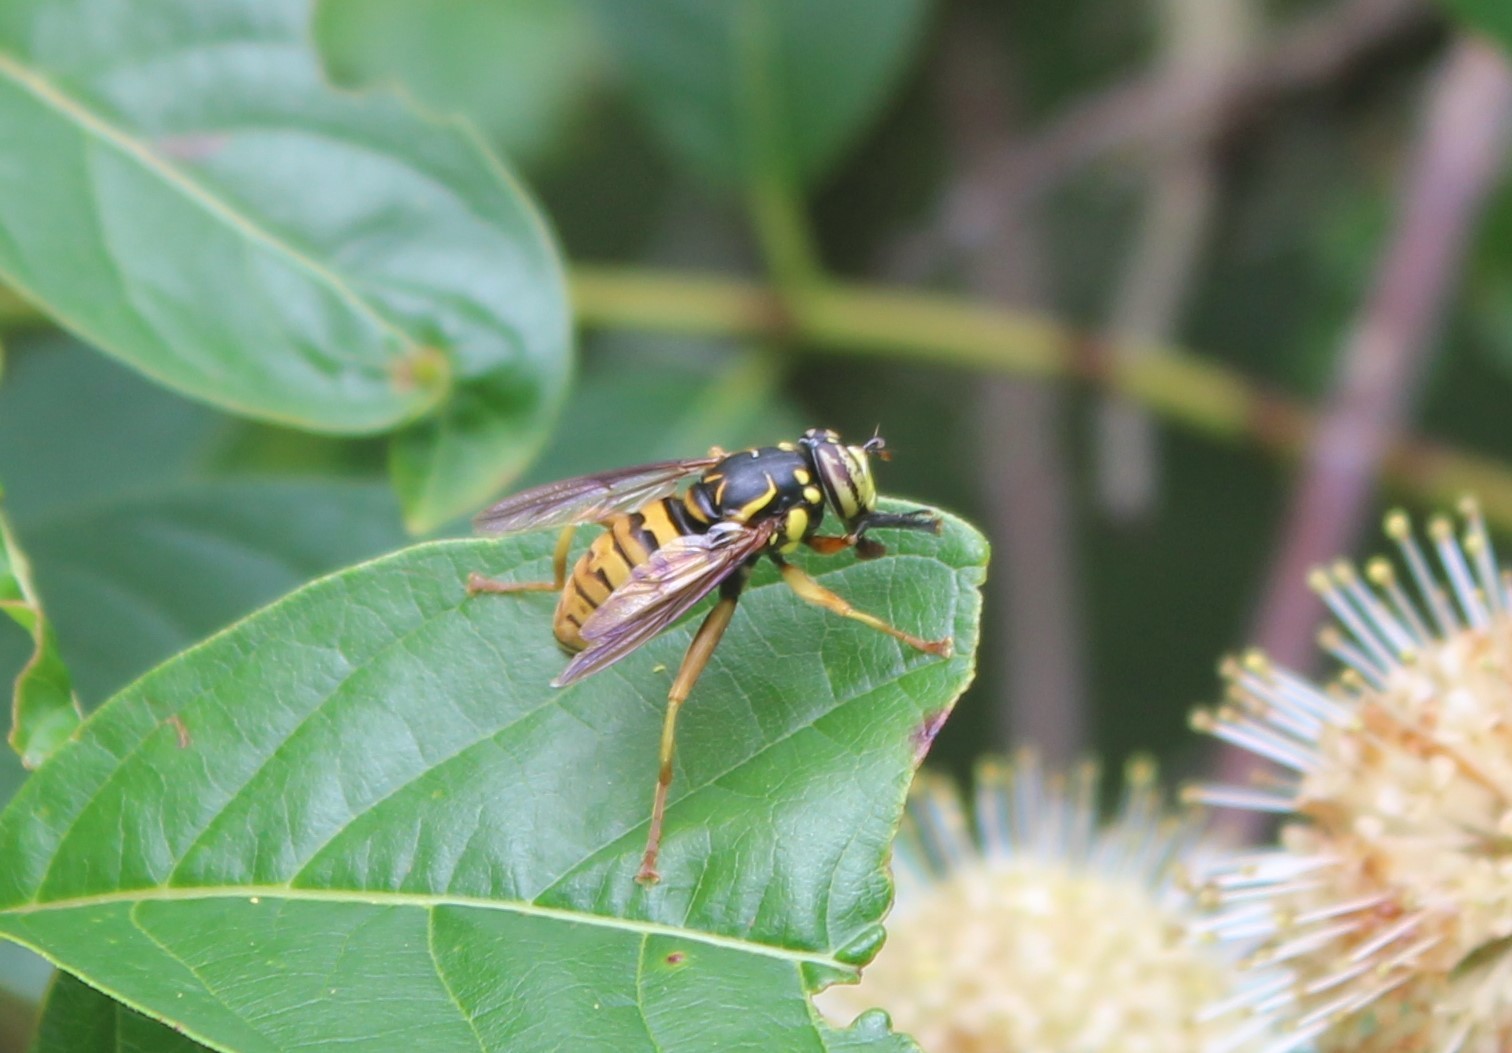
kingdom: Animalia
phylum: Arthropoda
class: Insecta
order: Diptera
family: Syrphidae
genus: Spilomyia
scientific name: Spilomyia alcimus
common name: Broad-banded hornet fly
